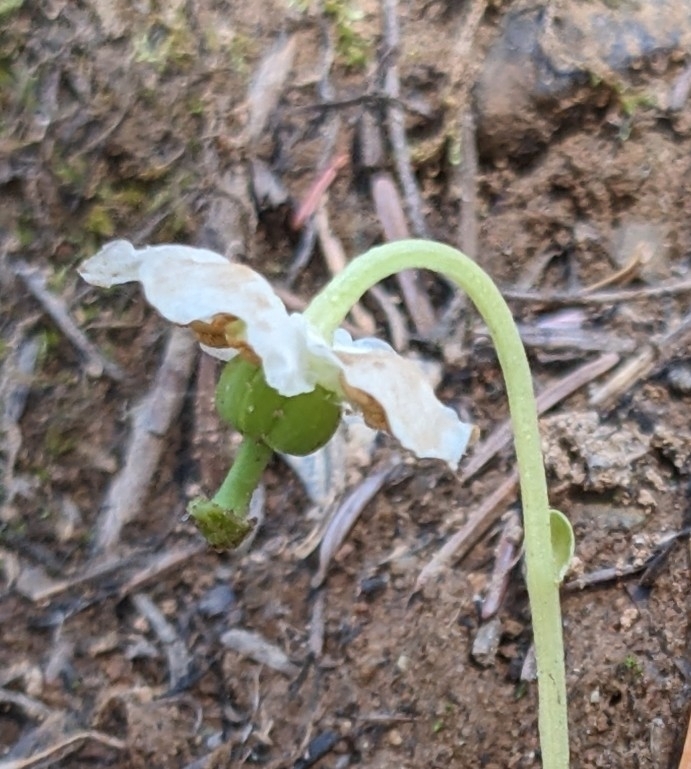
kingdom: Plantae
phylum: Tracheophyta
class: Magnoliopsida
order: Ericales
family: Ericaceae
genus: Moneses
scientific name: Moneses uniflora
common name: One-flowered wintergreen
